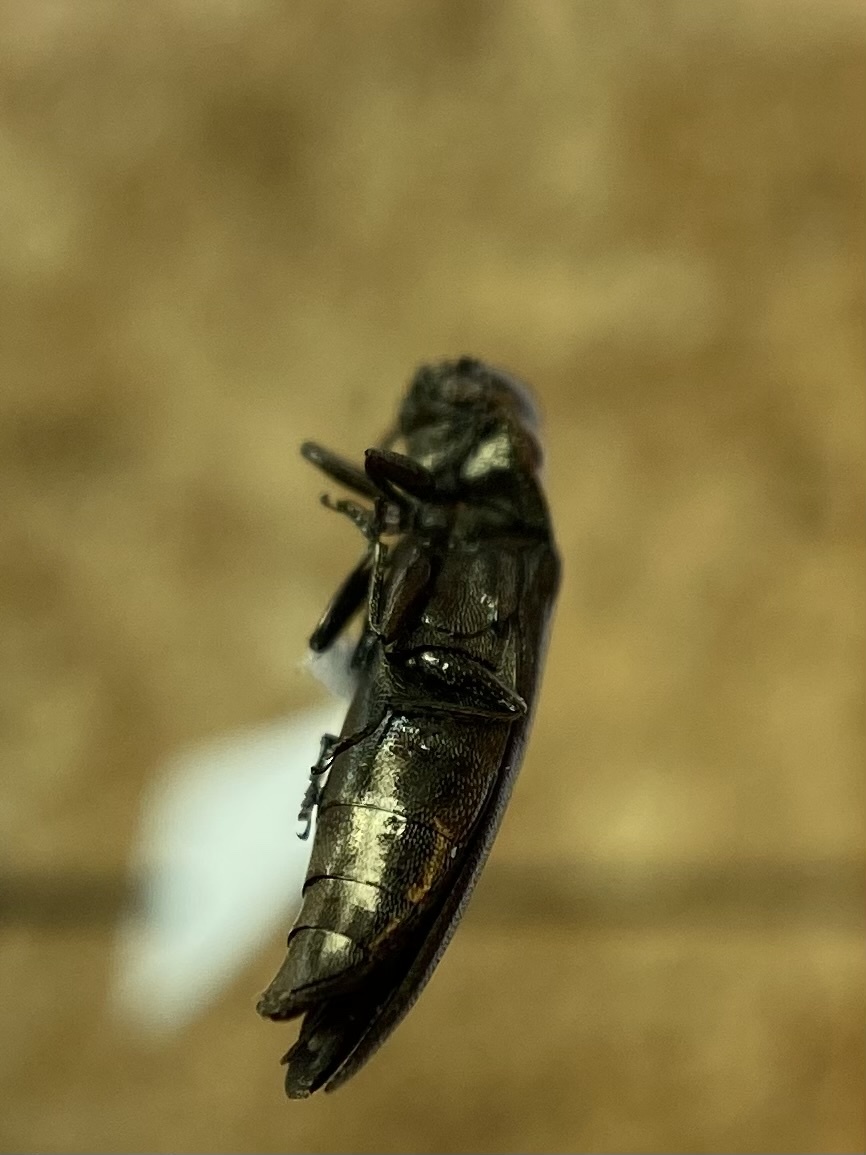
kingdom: Animalia
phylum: Arthropoda
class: Insecta
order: Coleoptera
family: Buprestidae
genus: Agrilus
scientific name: Agrilus cephalicus
